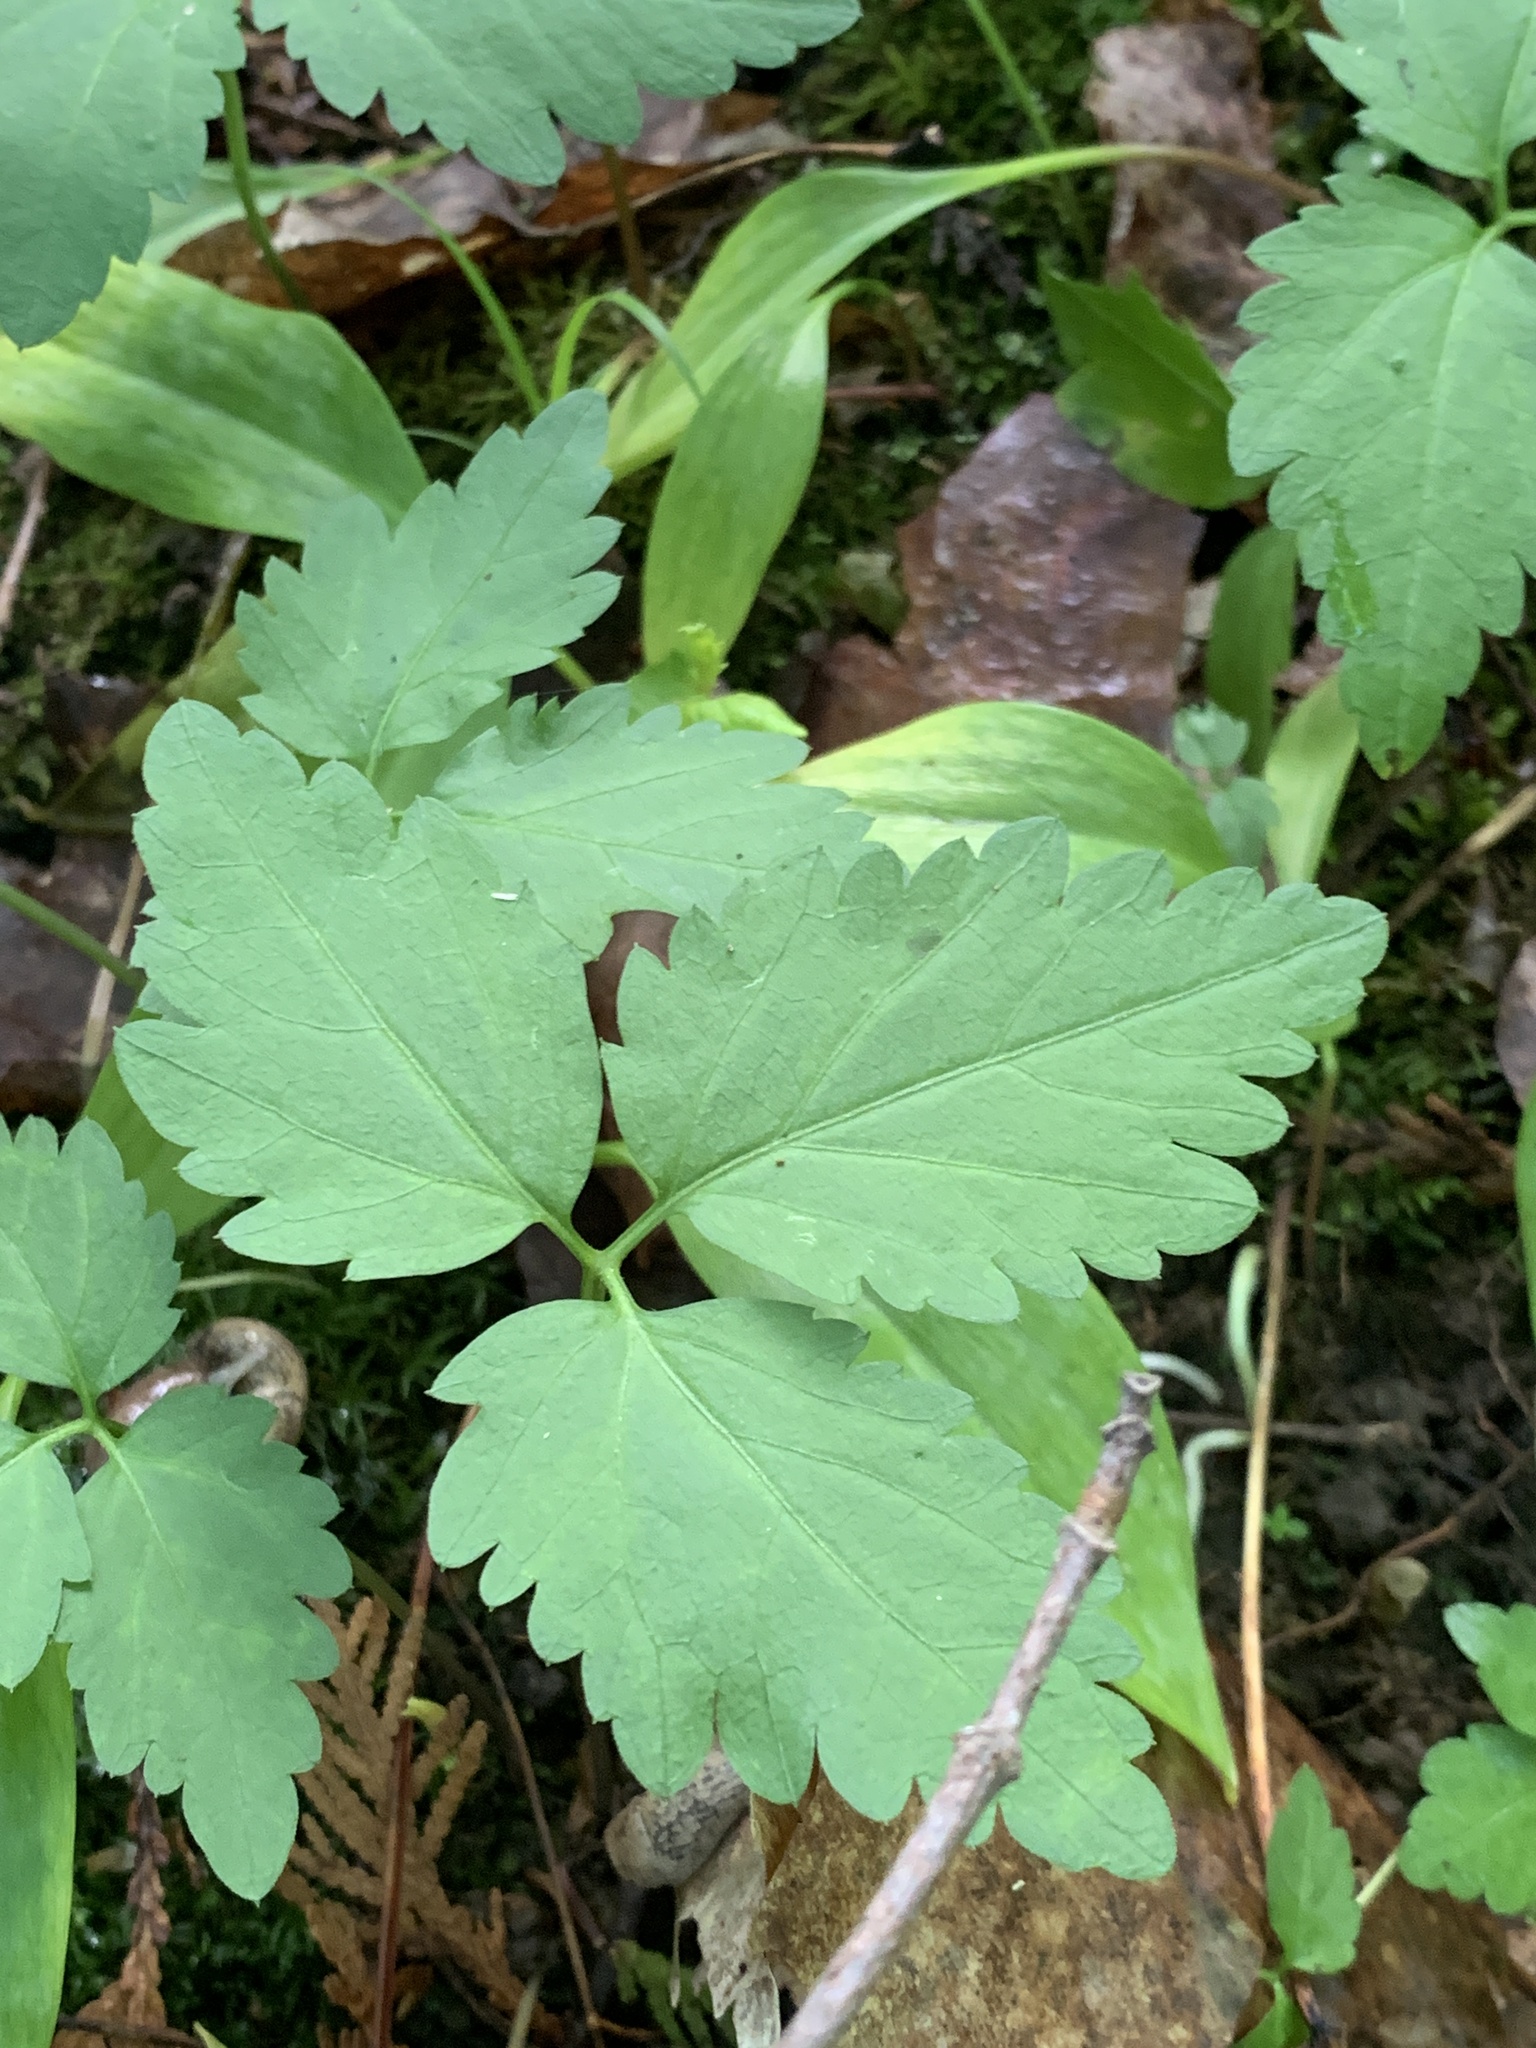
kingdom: Plantae
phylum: Tracheophyta
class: Magnoliopsida
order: Brassicales
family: Brassicaceae
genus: Cardamine
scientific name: Cardamine diphylla
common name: Broad-leaved toothwort
